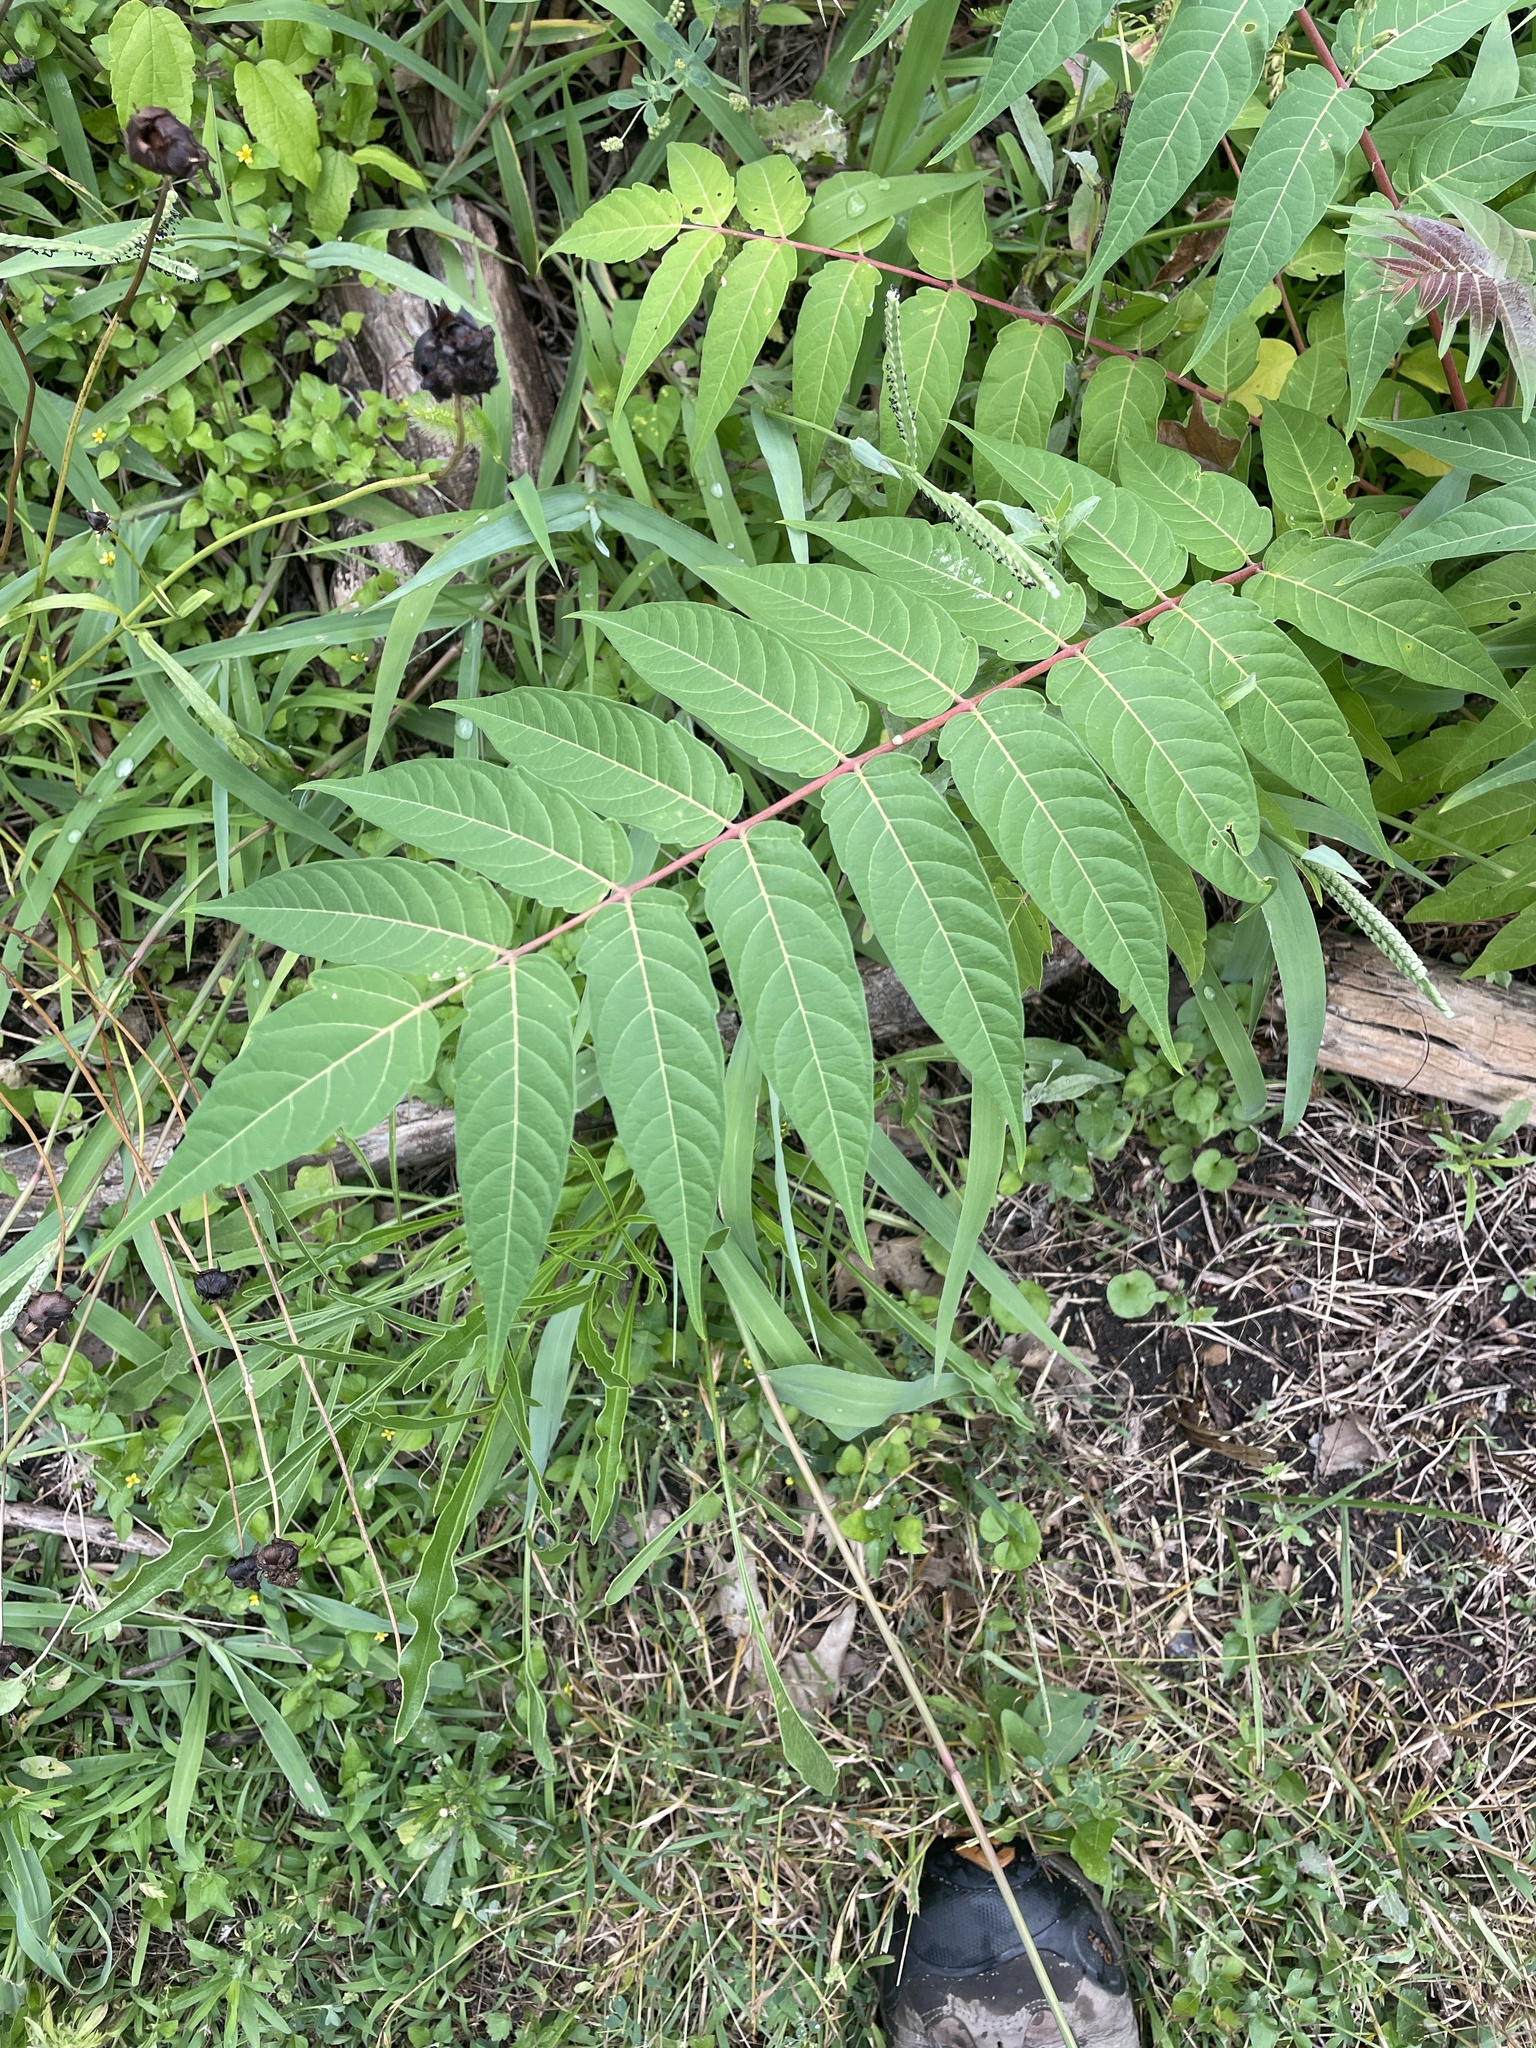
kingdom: Plantae
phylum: Tracheophyta
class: Magnoliopsida
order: Sapindales
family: Simaroubaceae
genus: Ailanthus
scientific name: Ailanthus altissima
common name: Tree-of-heaven
